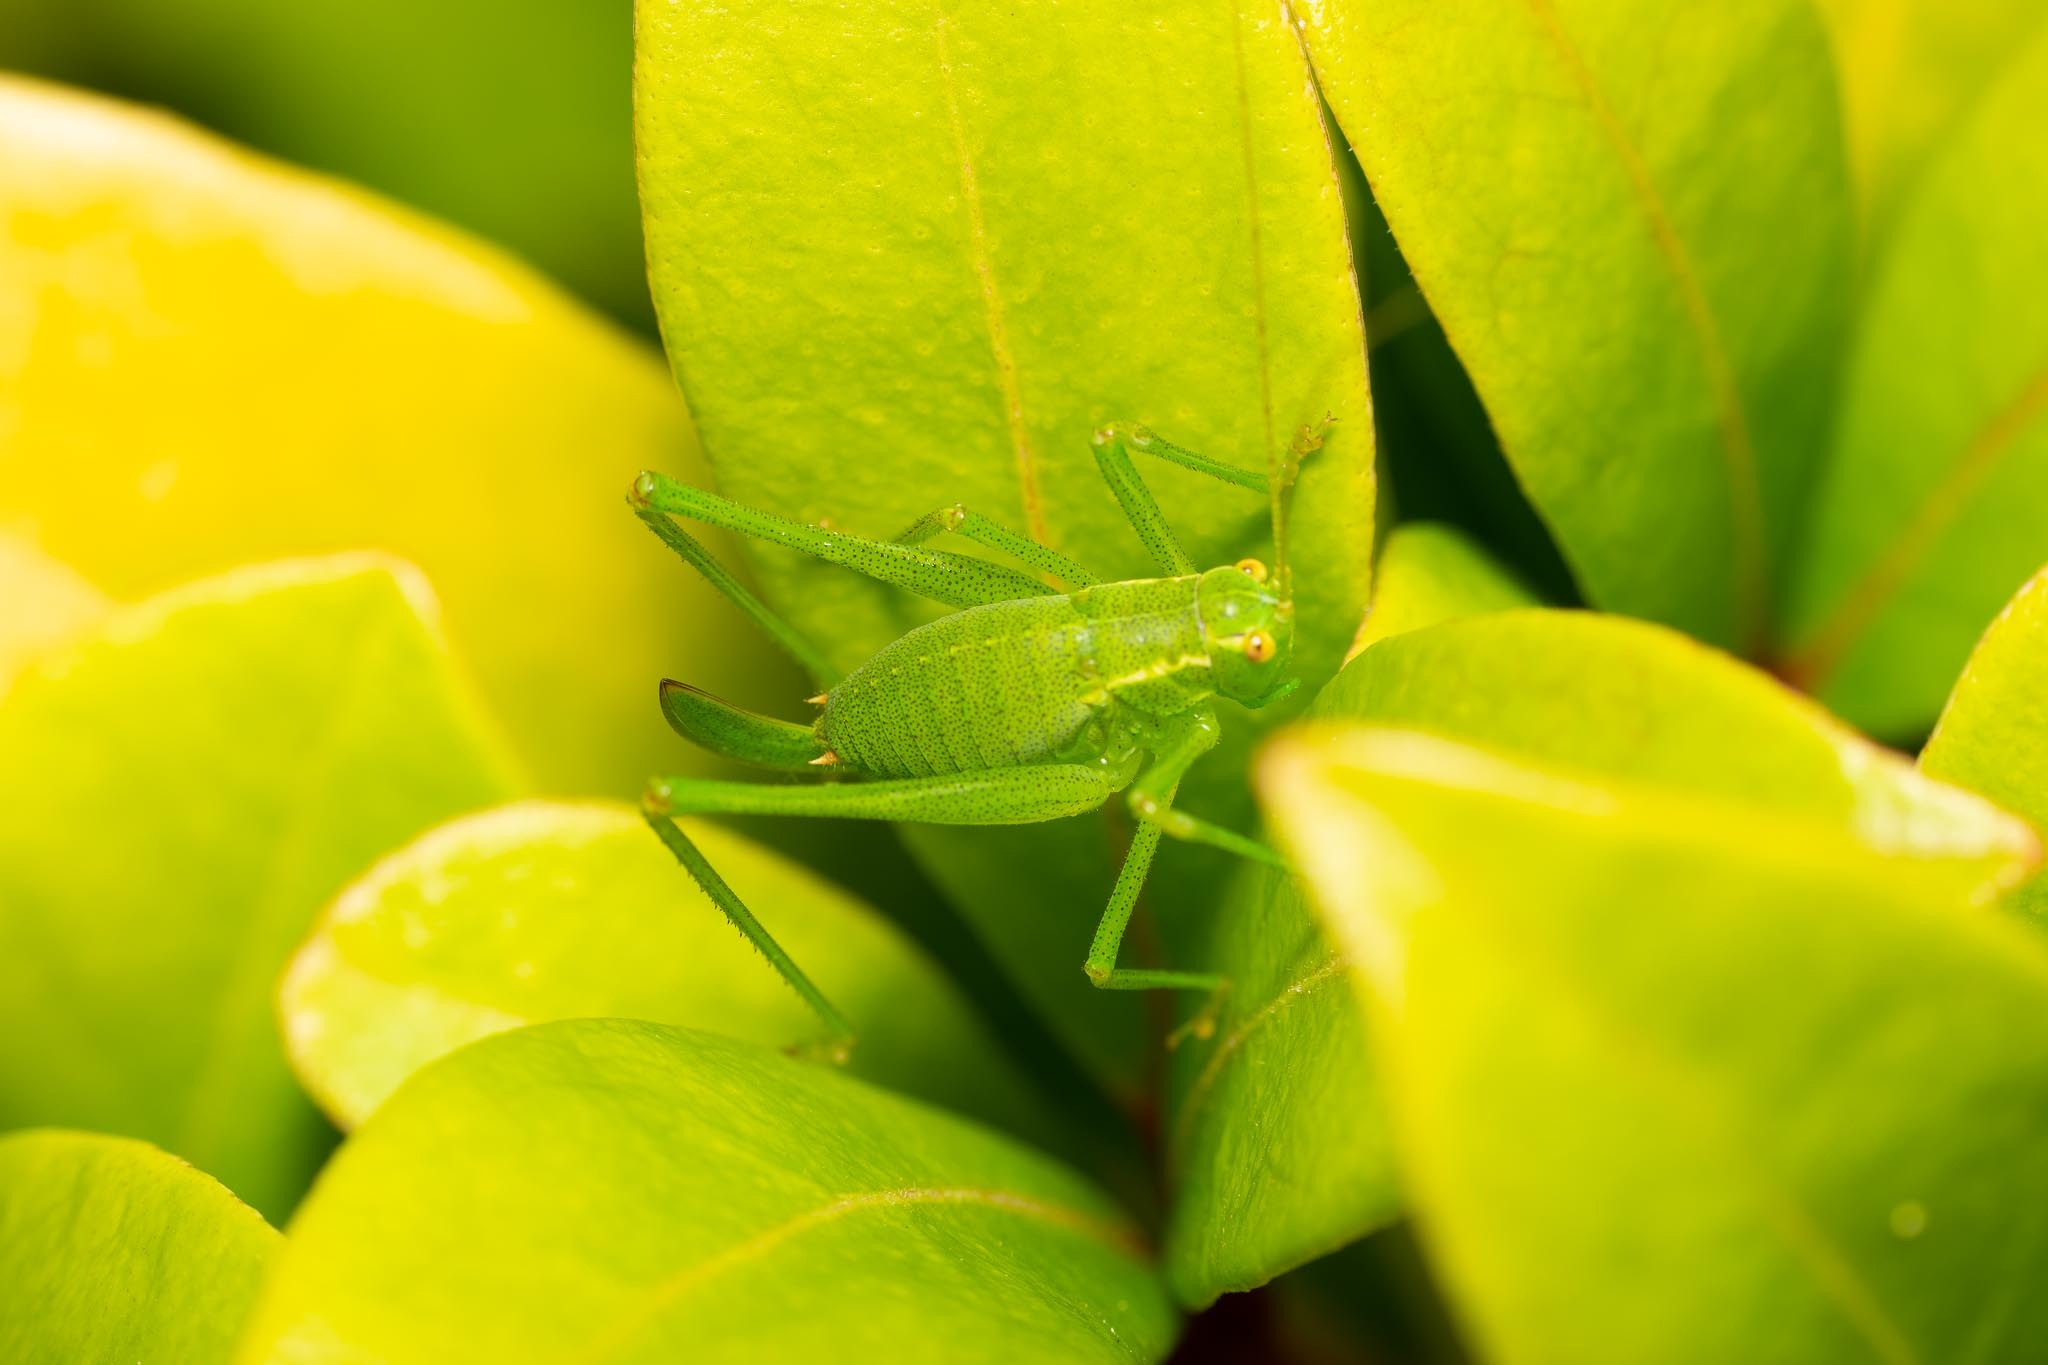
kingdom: Animalia
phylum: Arthropoda
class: Insecta
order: Orthoptera
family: Tettigoniidae
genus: Leptophyes
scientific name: Leptophyes punctatissima
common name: Speckled bush-cricket
